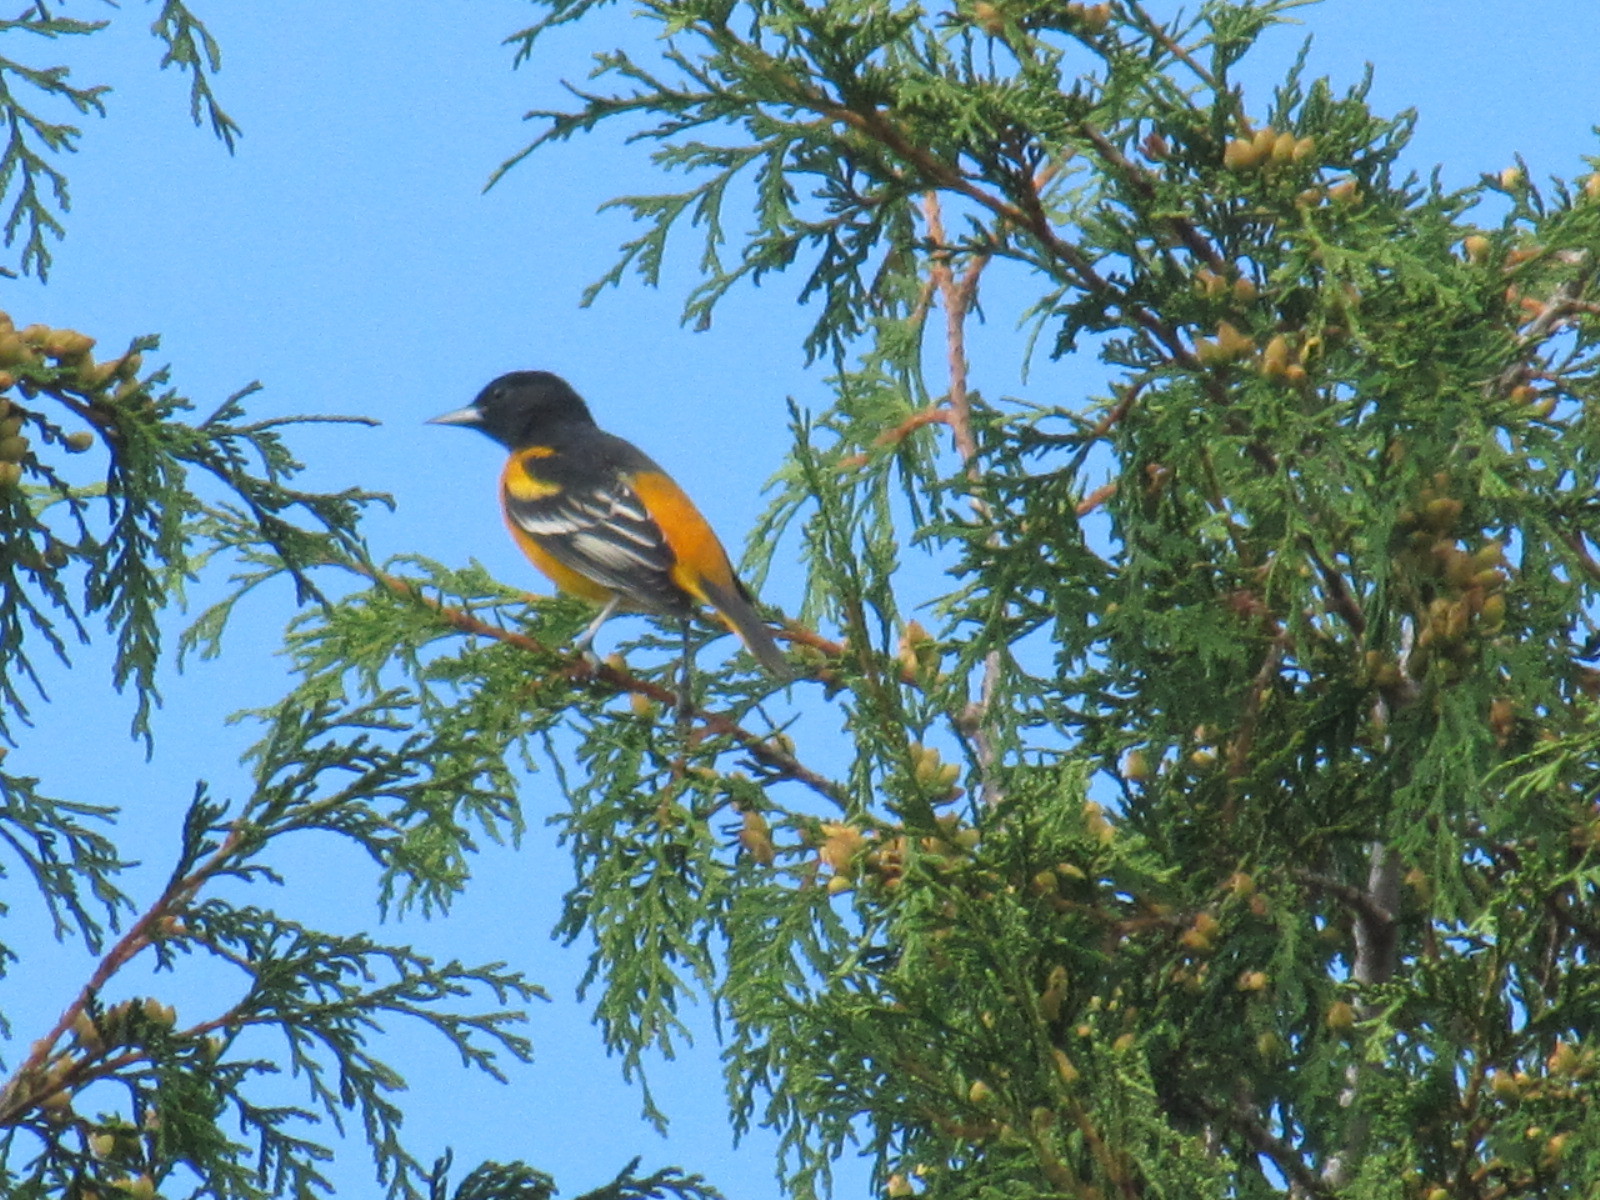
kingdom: Animalia
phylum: Chordata
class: Aves
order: Passeriformes
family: Icteridae
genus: Icterus
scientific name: Icterus galbula
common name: Baltimore oriole
